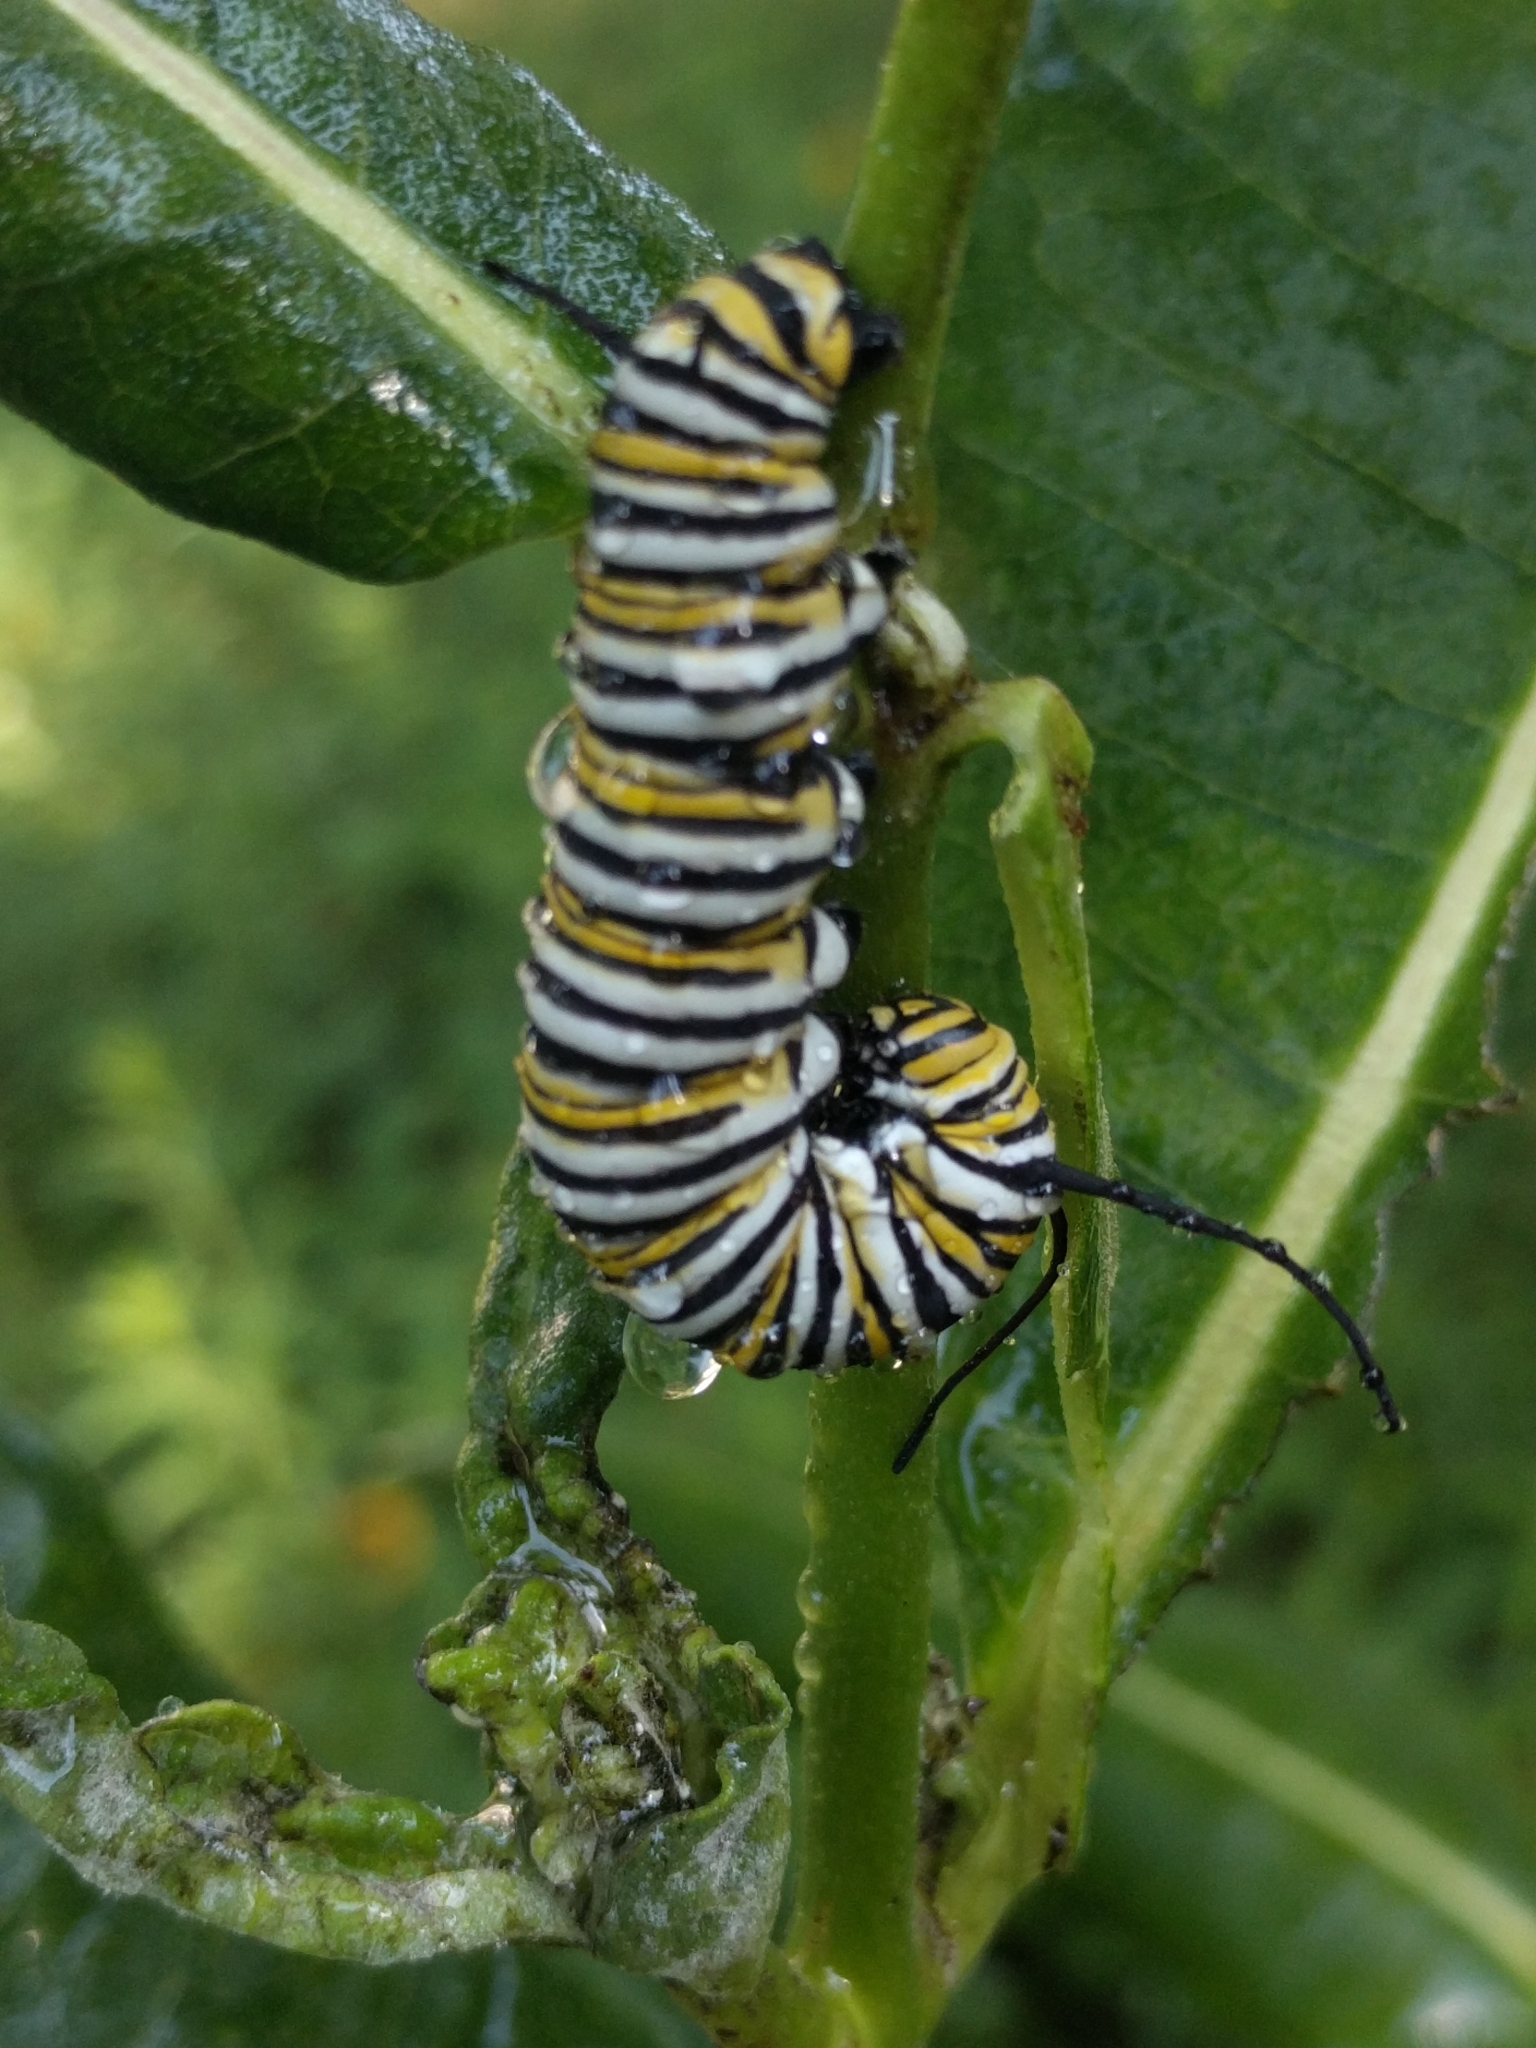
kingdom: Animalia
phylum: Arthropoda
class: Insecta
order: Lepidoptera
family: Nymphalidae
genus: Danaus
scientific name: Danaus plexippus
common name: Monarch
